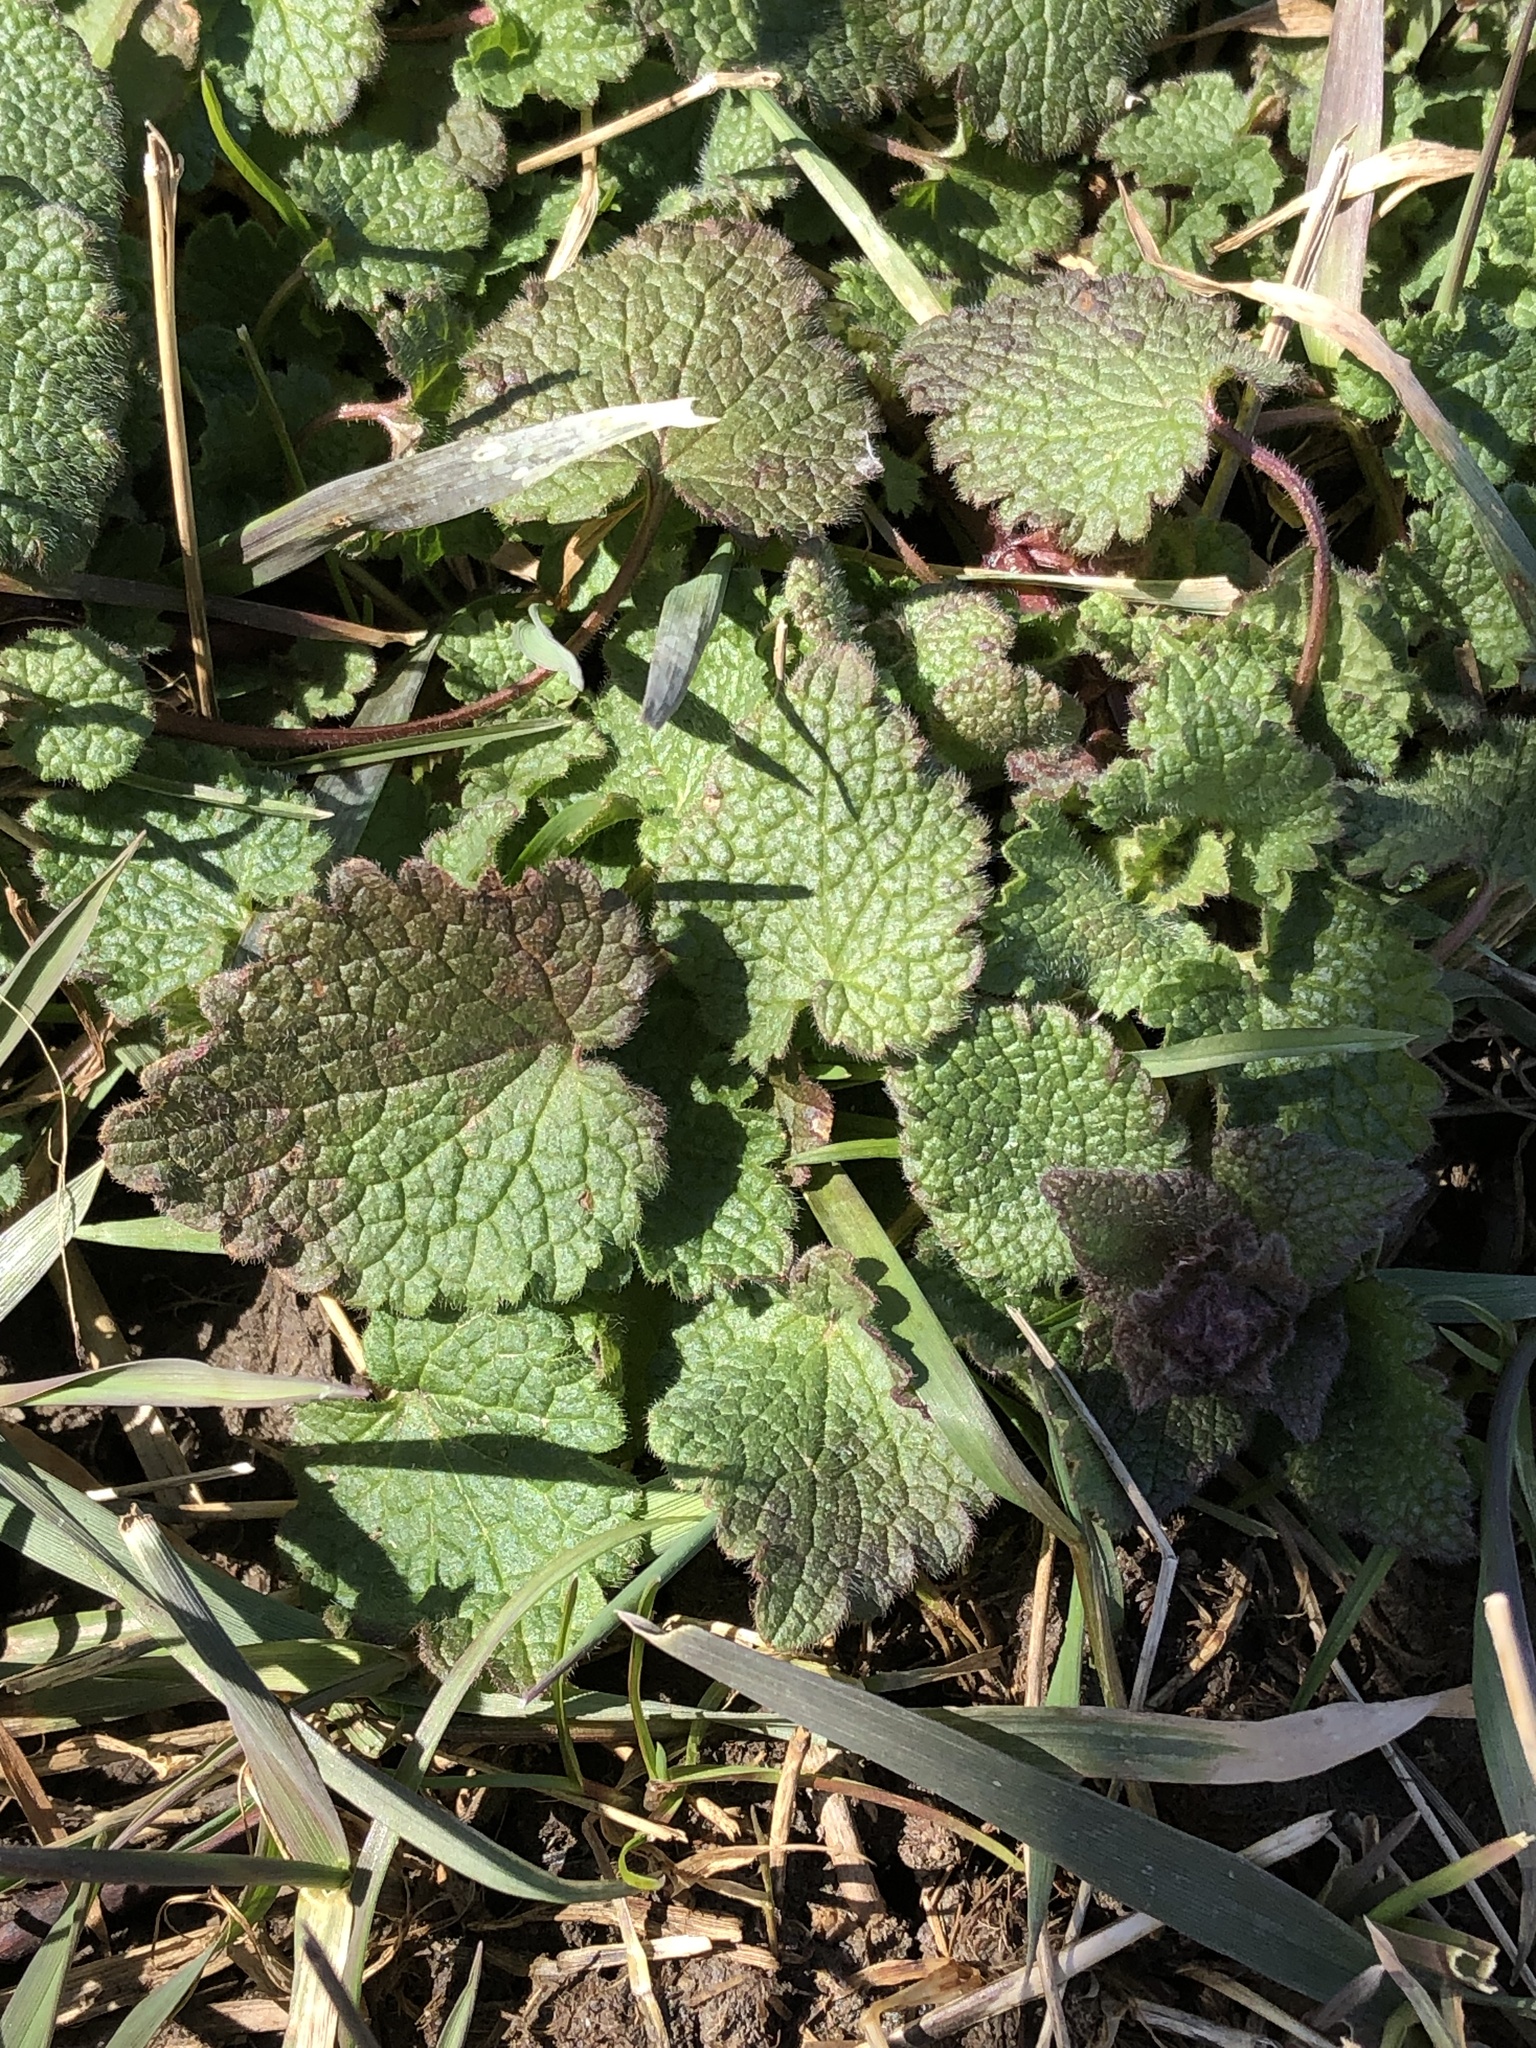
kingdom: Plantae
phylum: Tracheophyta
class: Magnoliopsida
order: Lamiales
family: Lamiaceae
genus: Lamium
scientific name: Lamium purpureum
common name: Red dead-nettle
